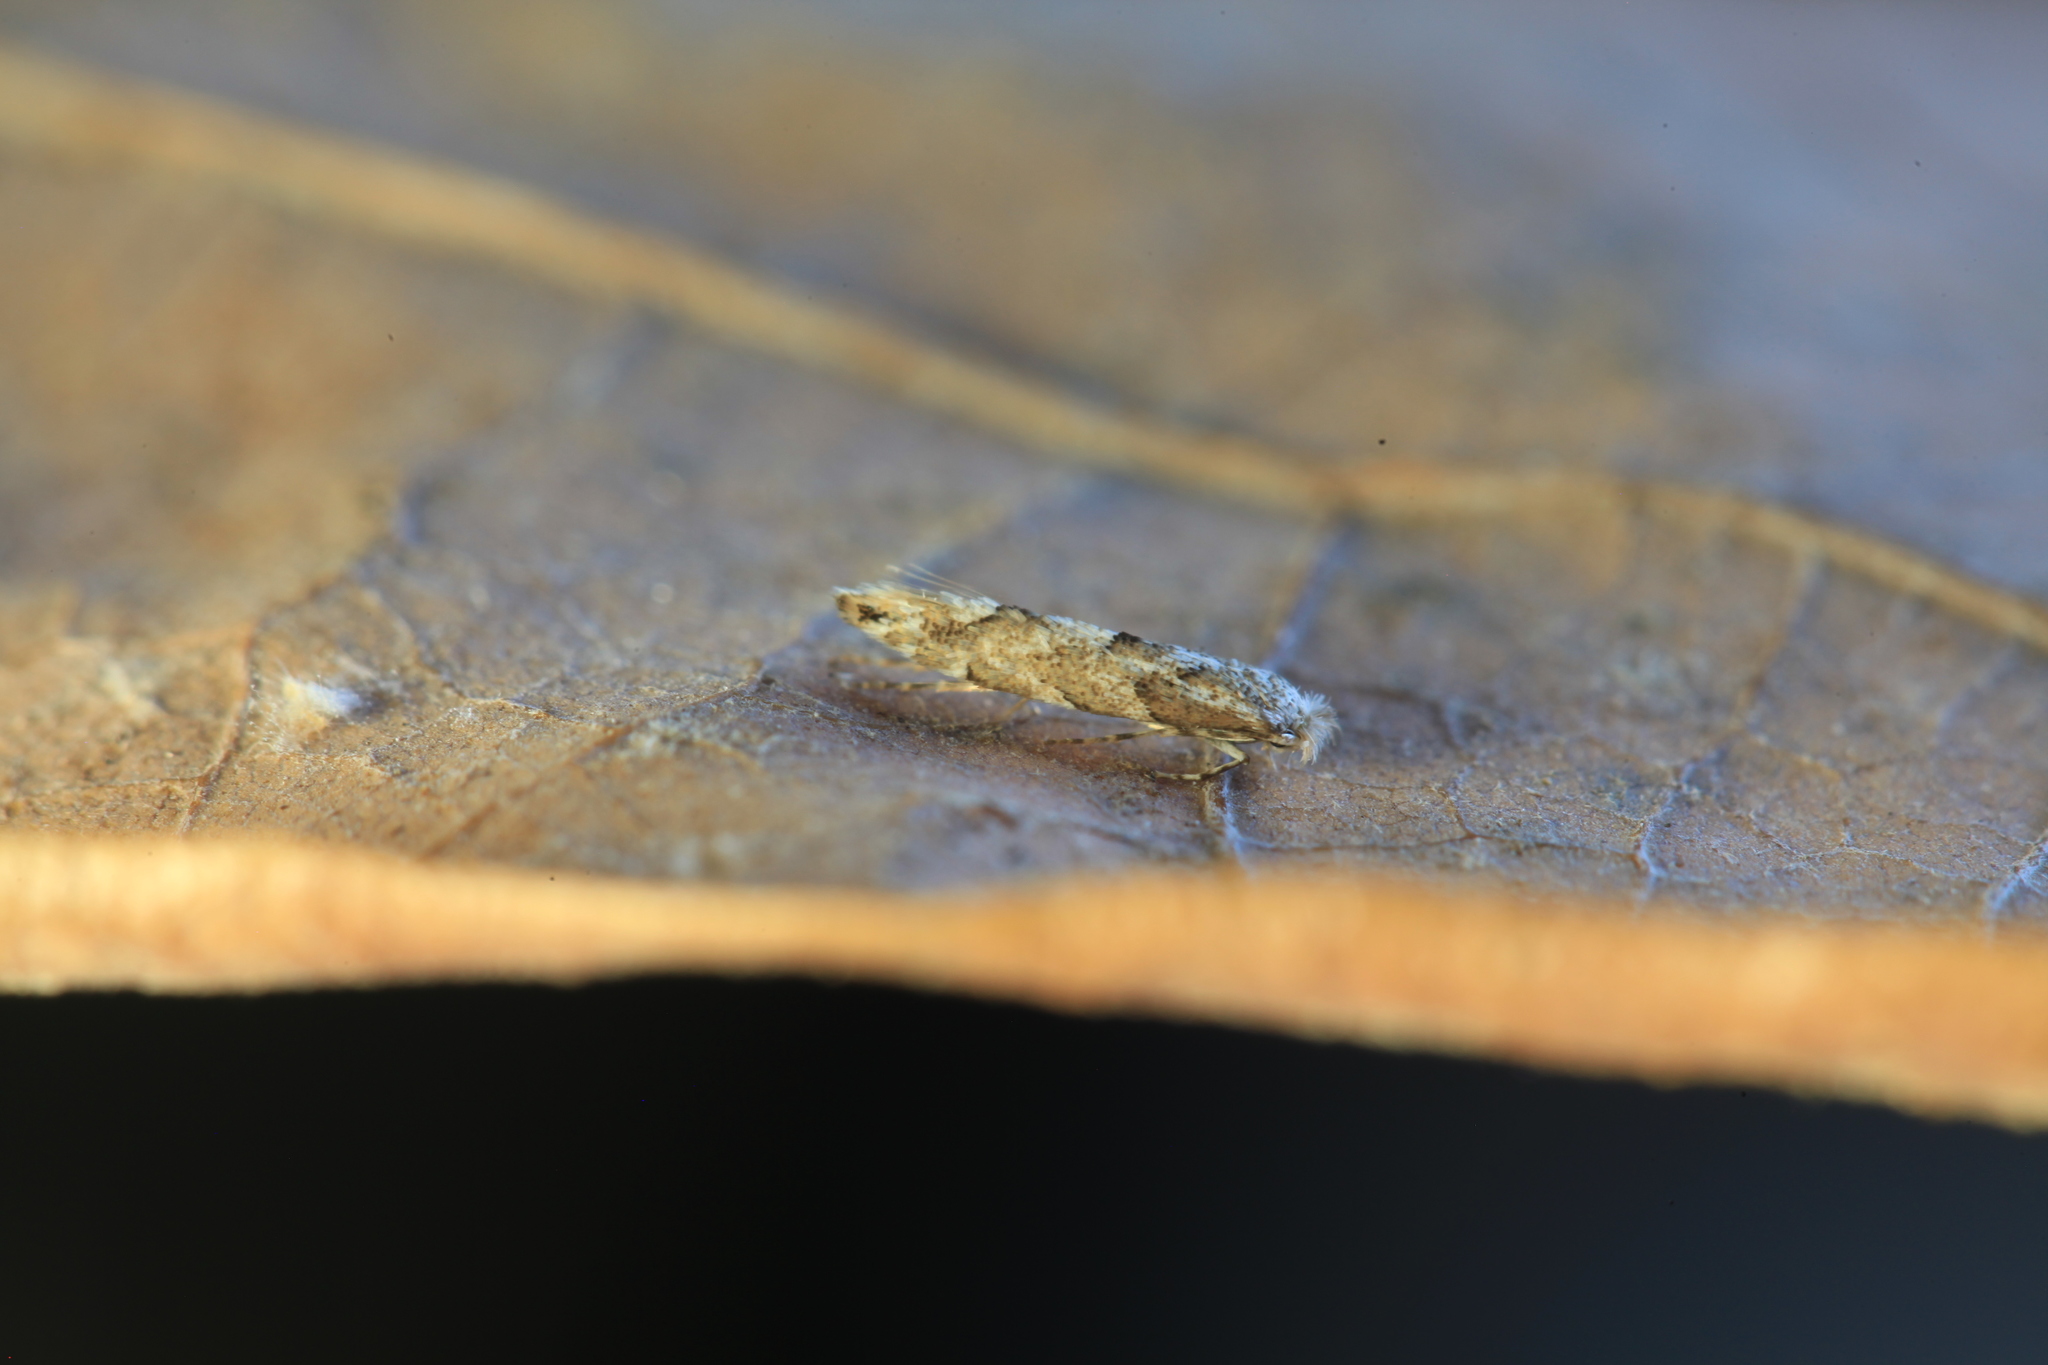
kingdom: Animalia
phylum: Arthropoda
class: Insecta
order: Lepidoptera
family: Gracillariidae
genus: Phyllonorycter
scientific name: Phyllonorycter pastorella
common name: Royal midget
